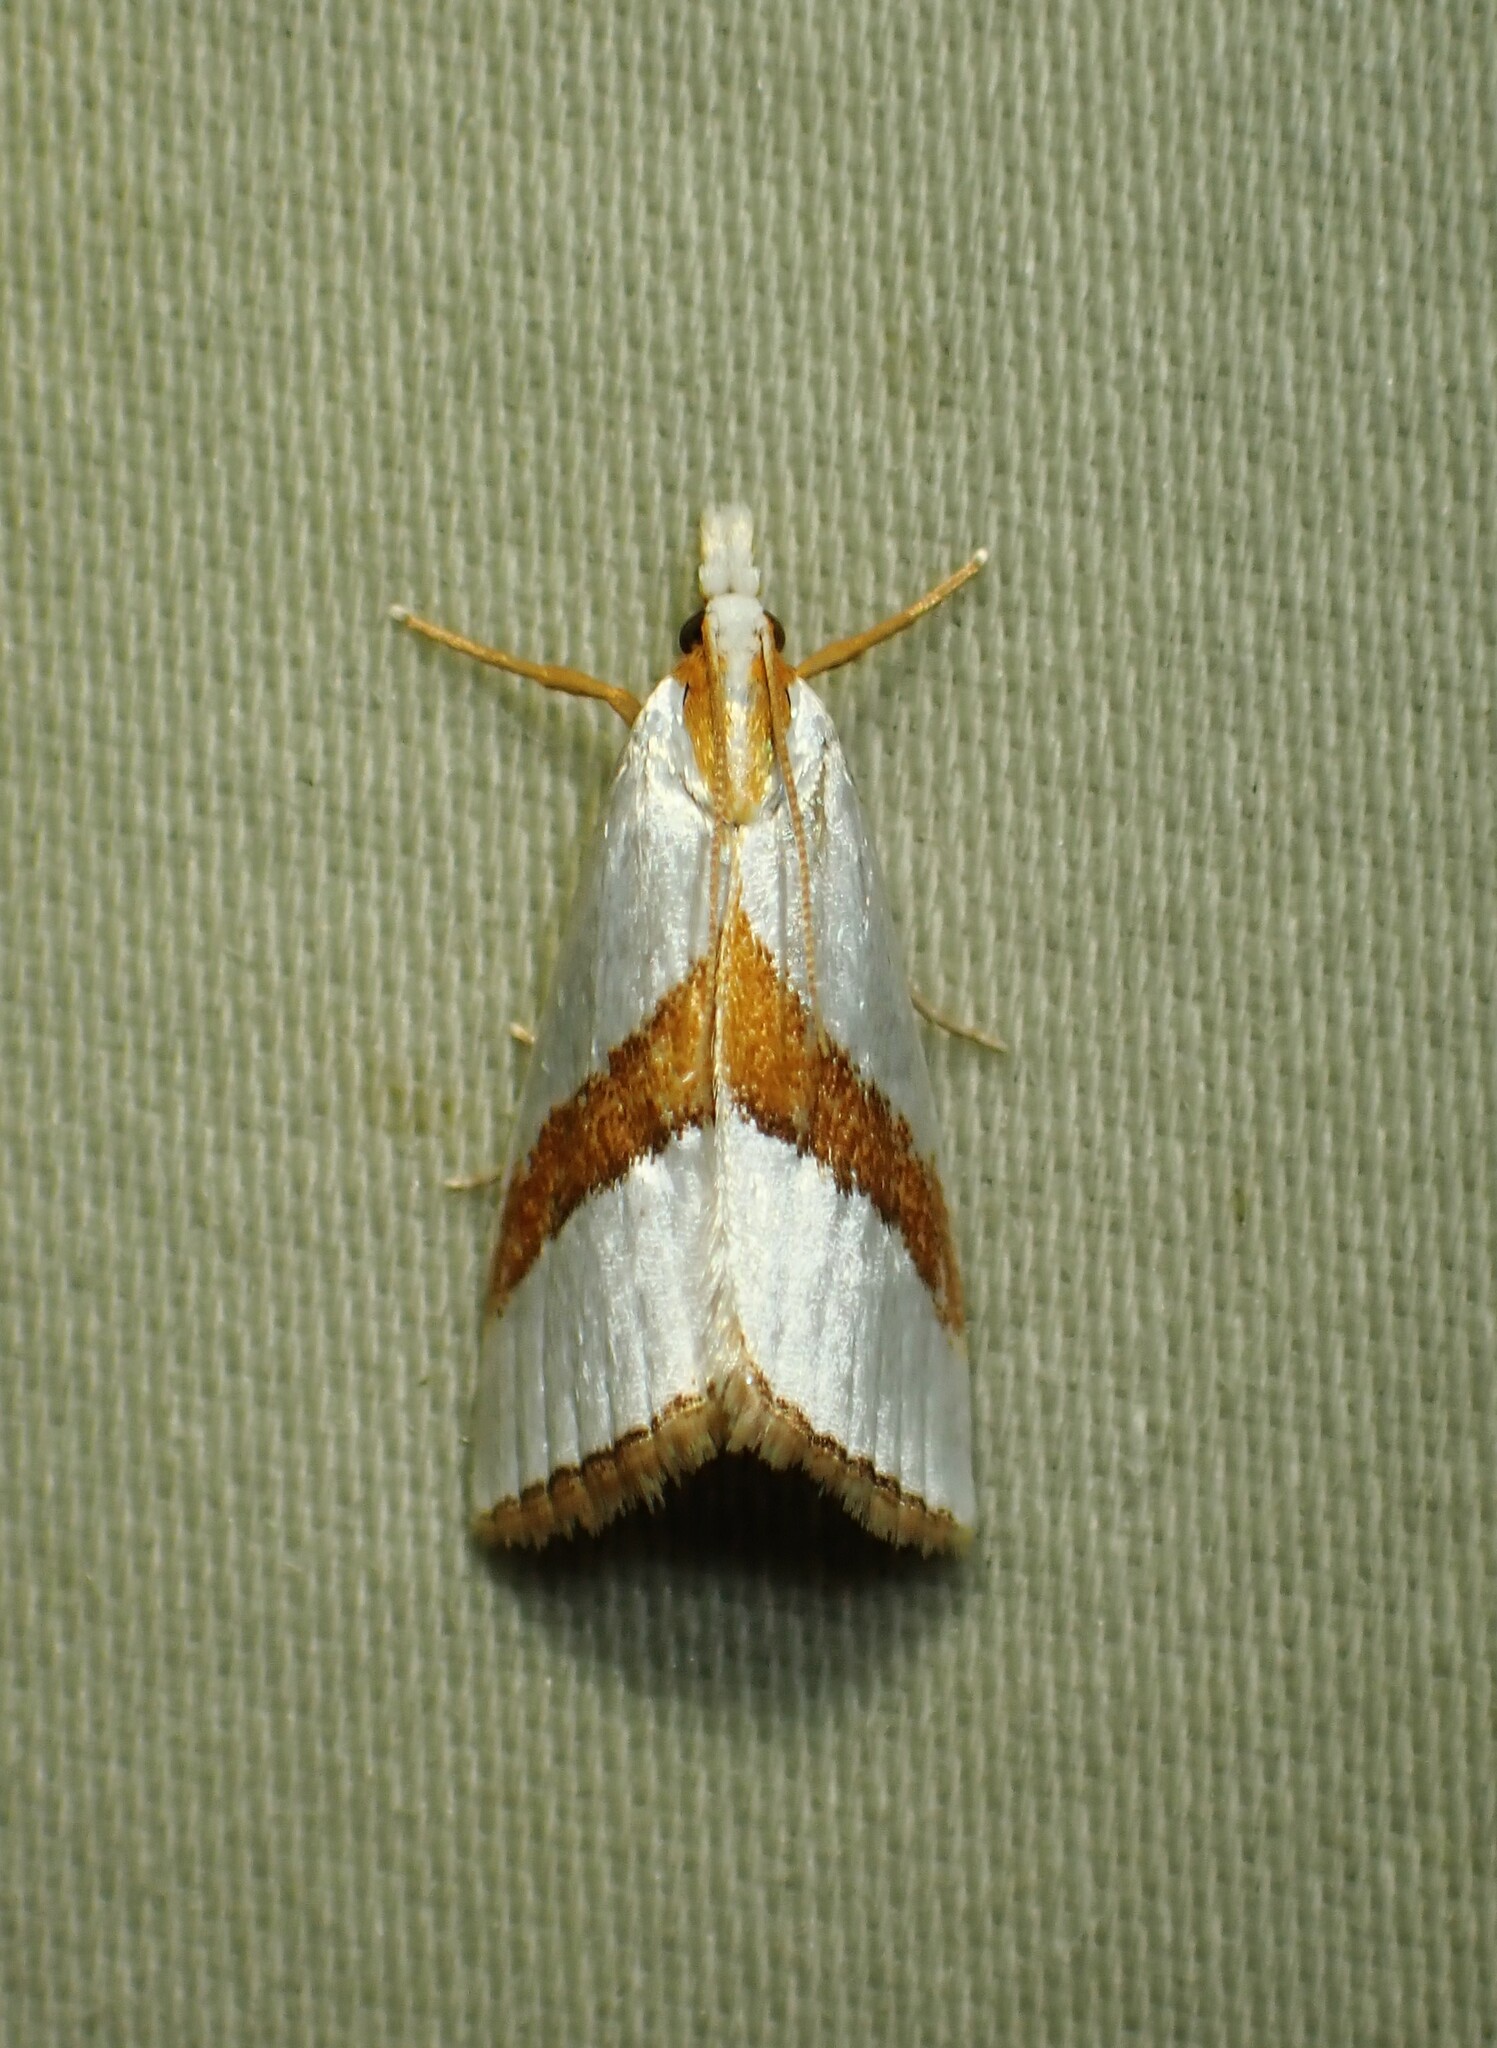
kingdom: Animalia
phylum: Arthropoda
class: Insecta
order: Lepidoptera
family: Crambidae
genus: Vaxi
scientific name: Vaxi critica
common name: Straight-lined vaxi moth
